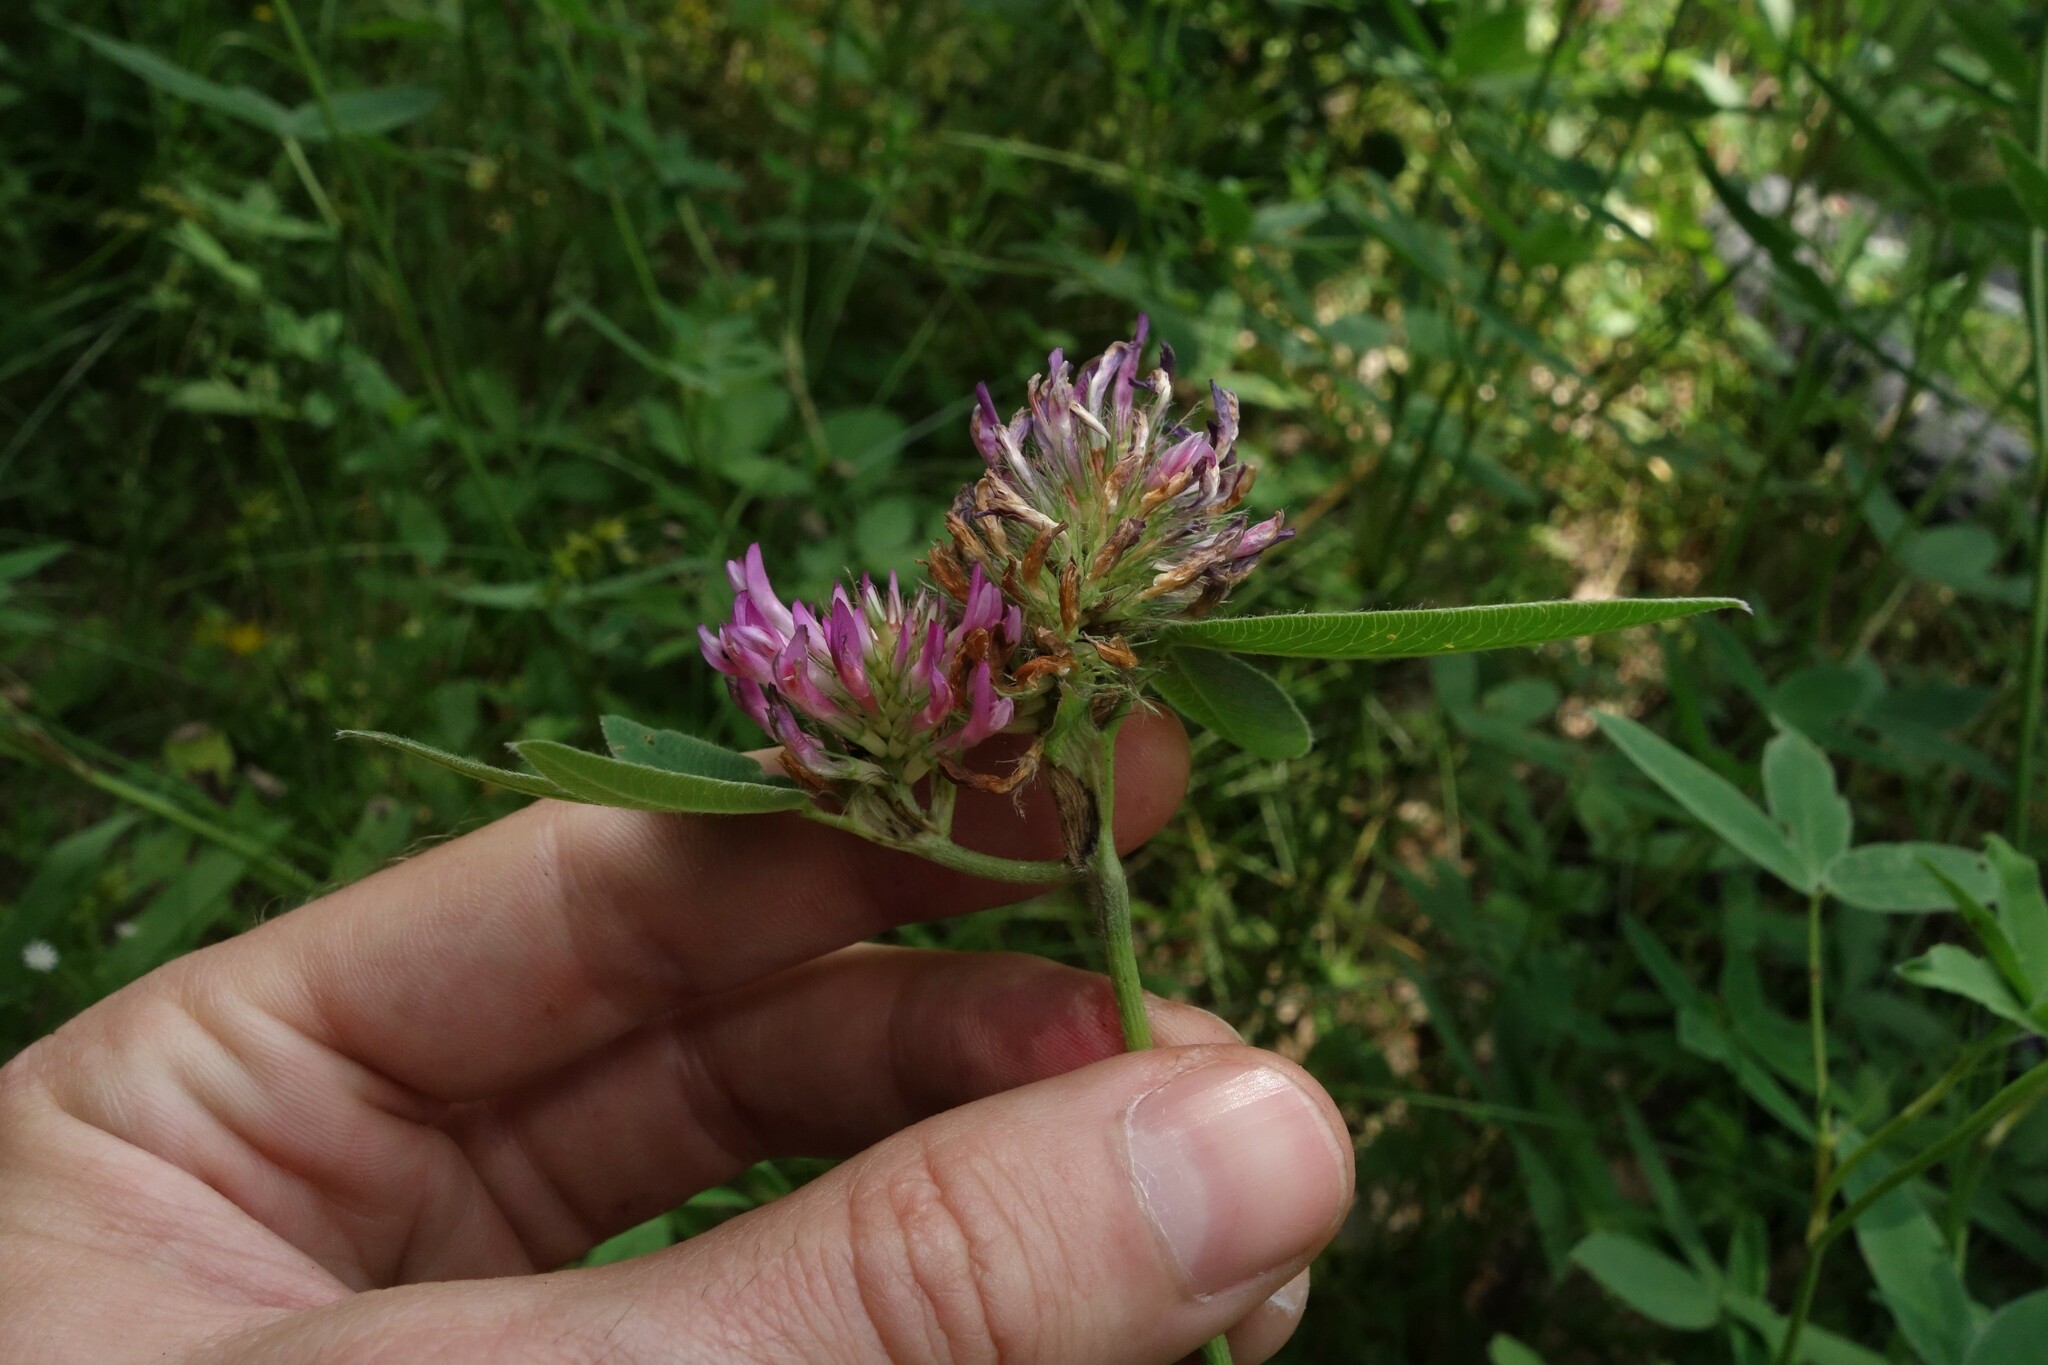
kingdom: Plantae
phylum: Tracheophyta
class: Magnoliopsida
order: Fabales
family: Fabaceae
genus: Trifolium
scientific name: Trifolium medium
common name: Zigzag clover
